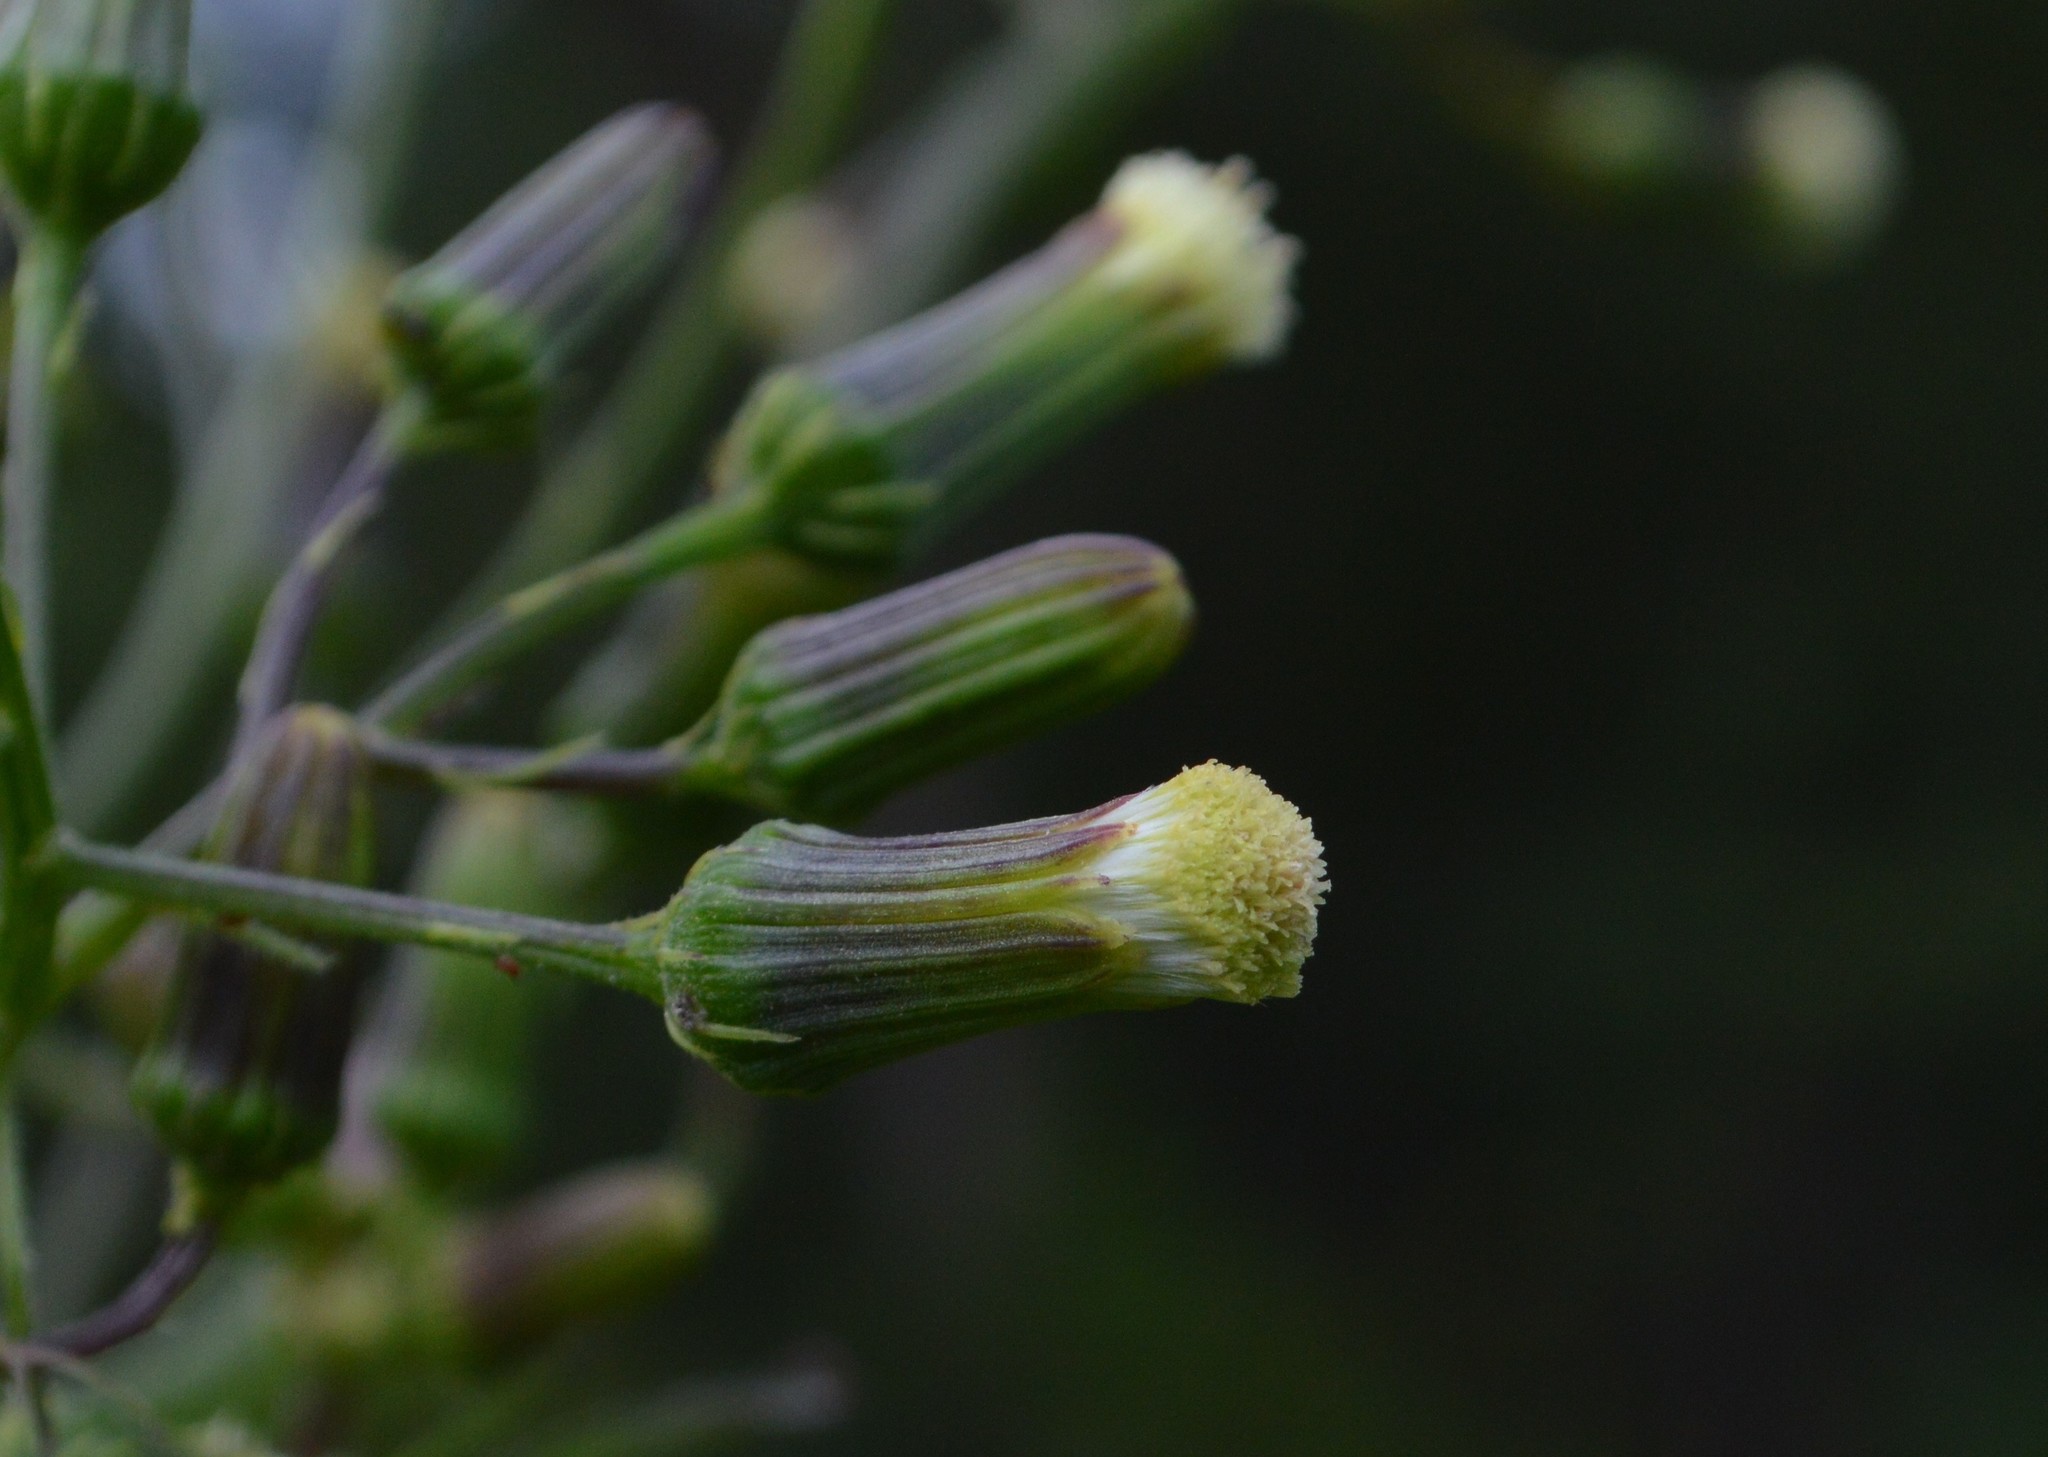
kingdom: Plantae
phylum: Tracheophyta
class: Magnoliopsida
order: Asterales
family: Asteraceae
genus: Erechtites
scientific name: Erechtites hieraciifolius
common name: American burnweed
